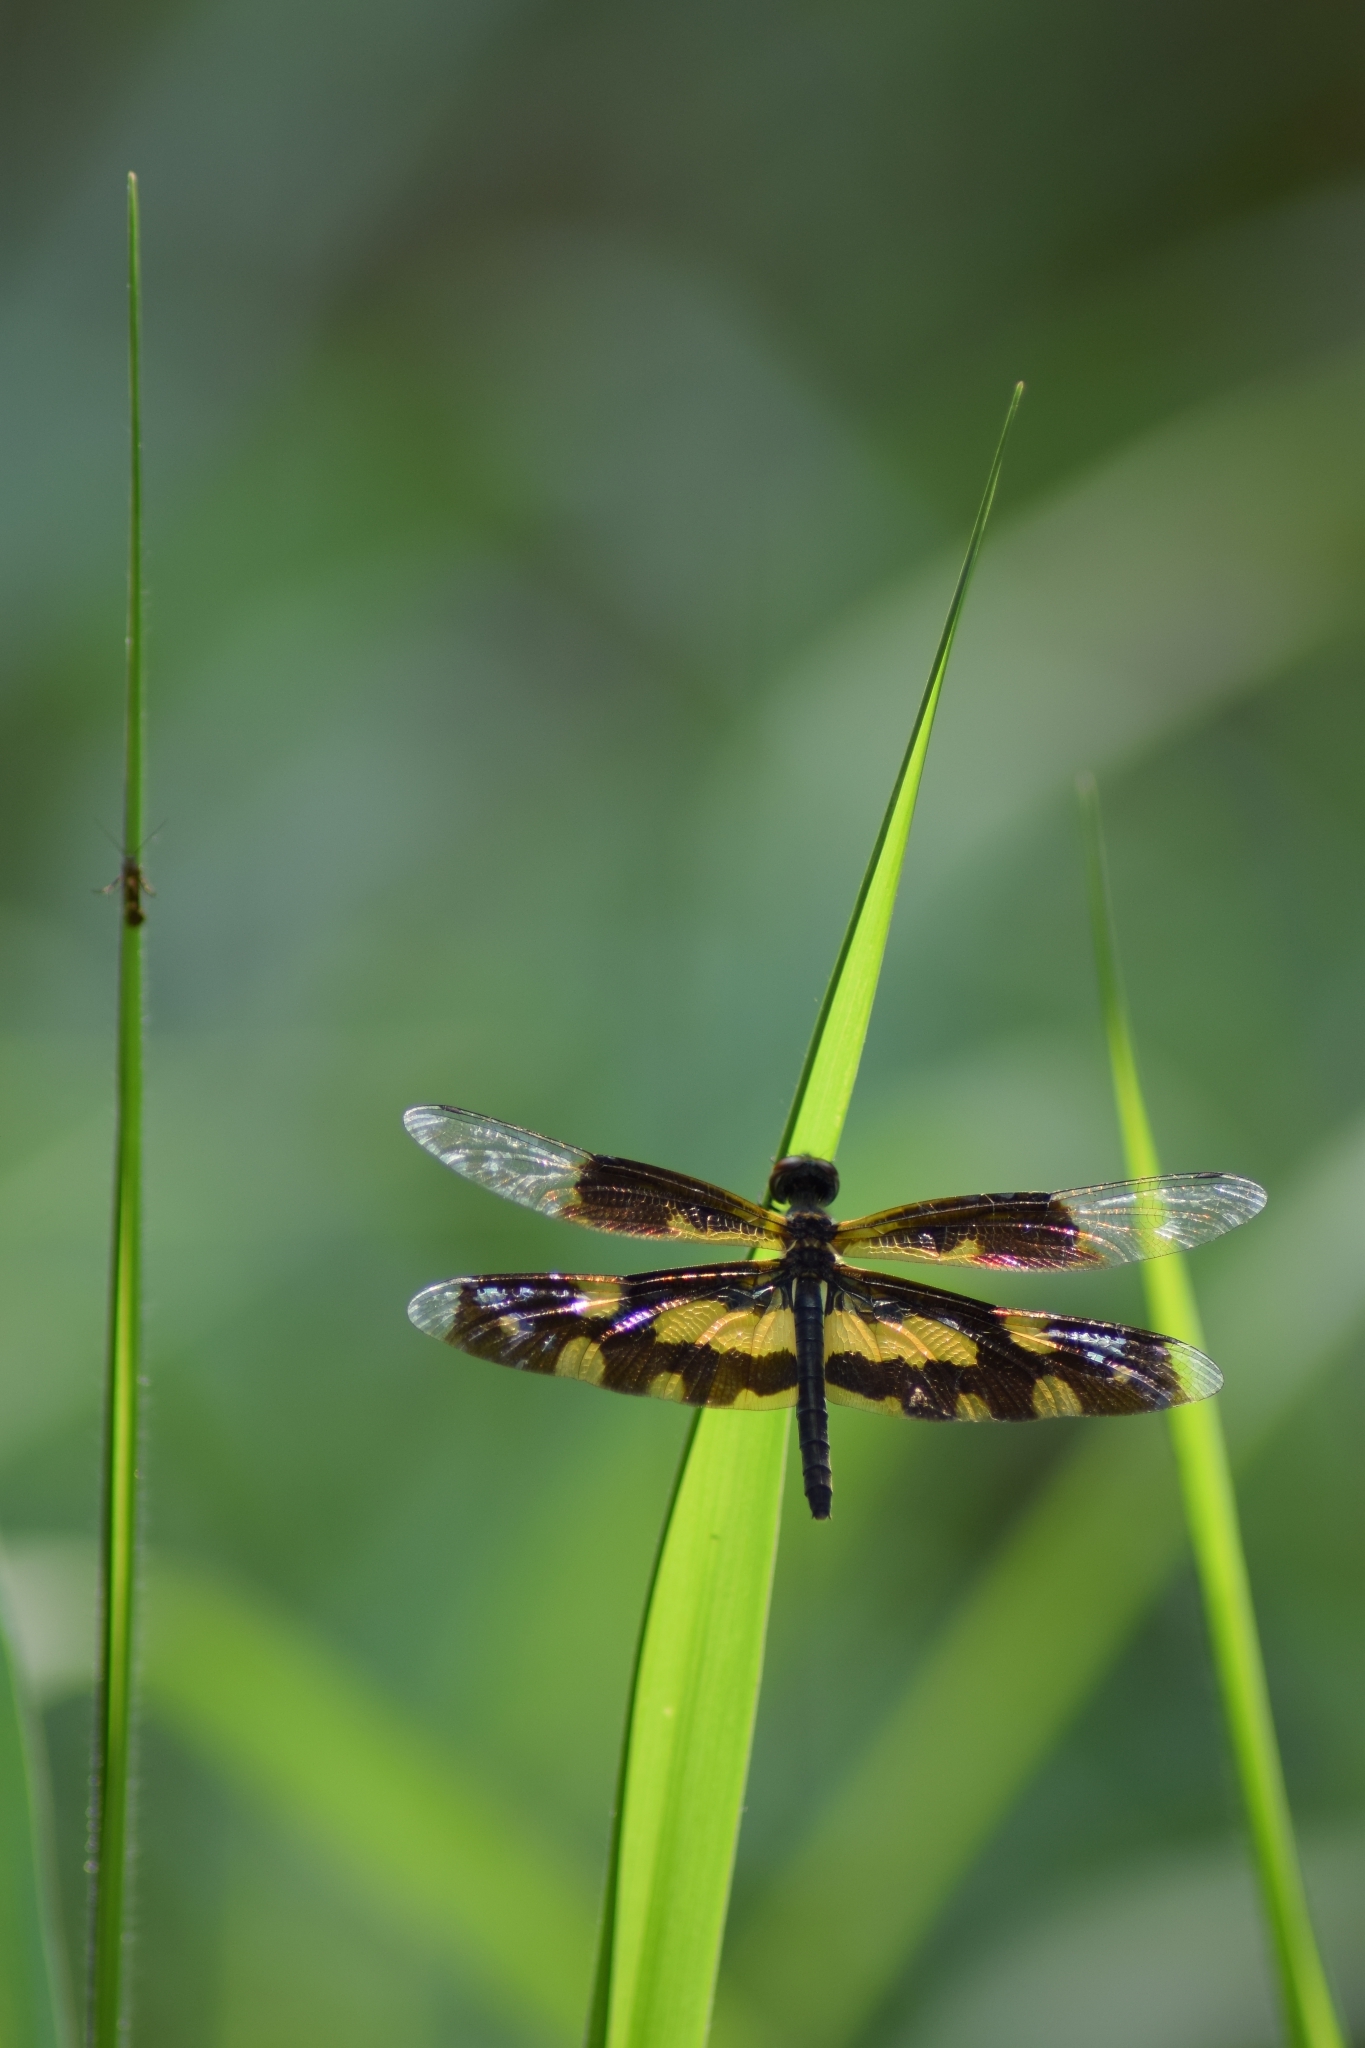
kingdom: Animalia
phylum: Arthropoda
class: Insecta
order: Odonata
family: Libellulidae
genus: Rhyothemis
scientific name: Rhyothemis variegata
